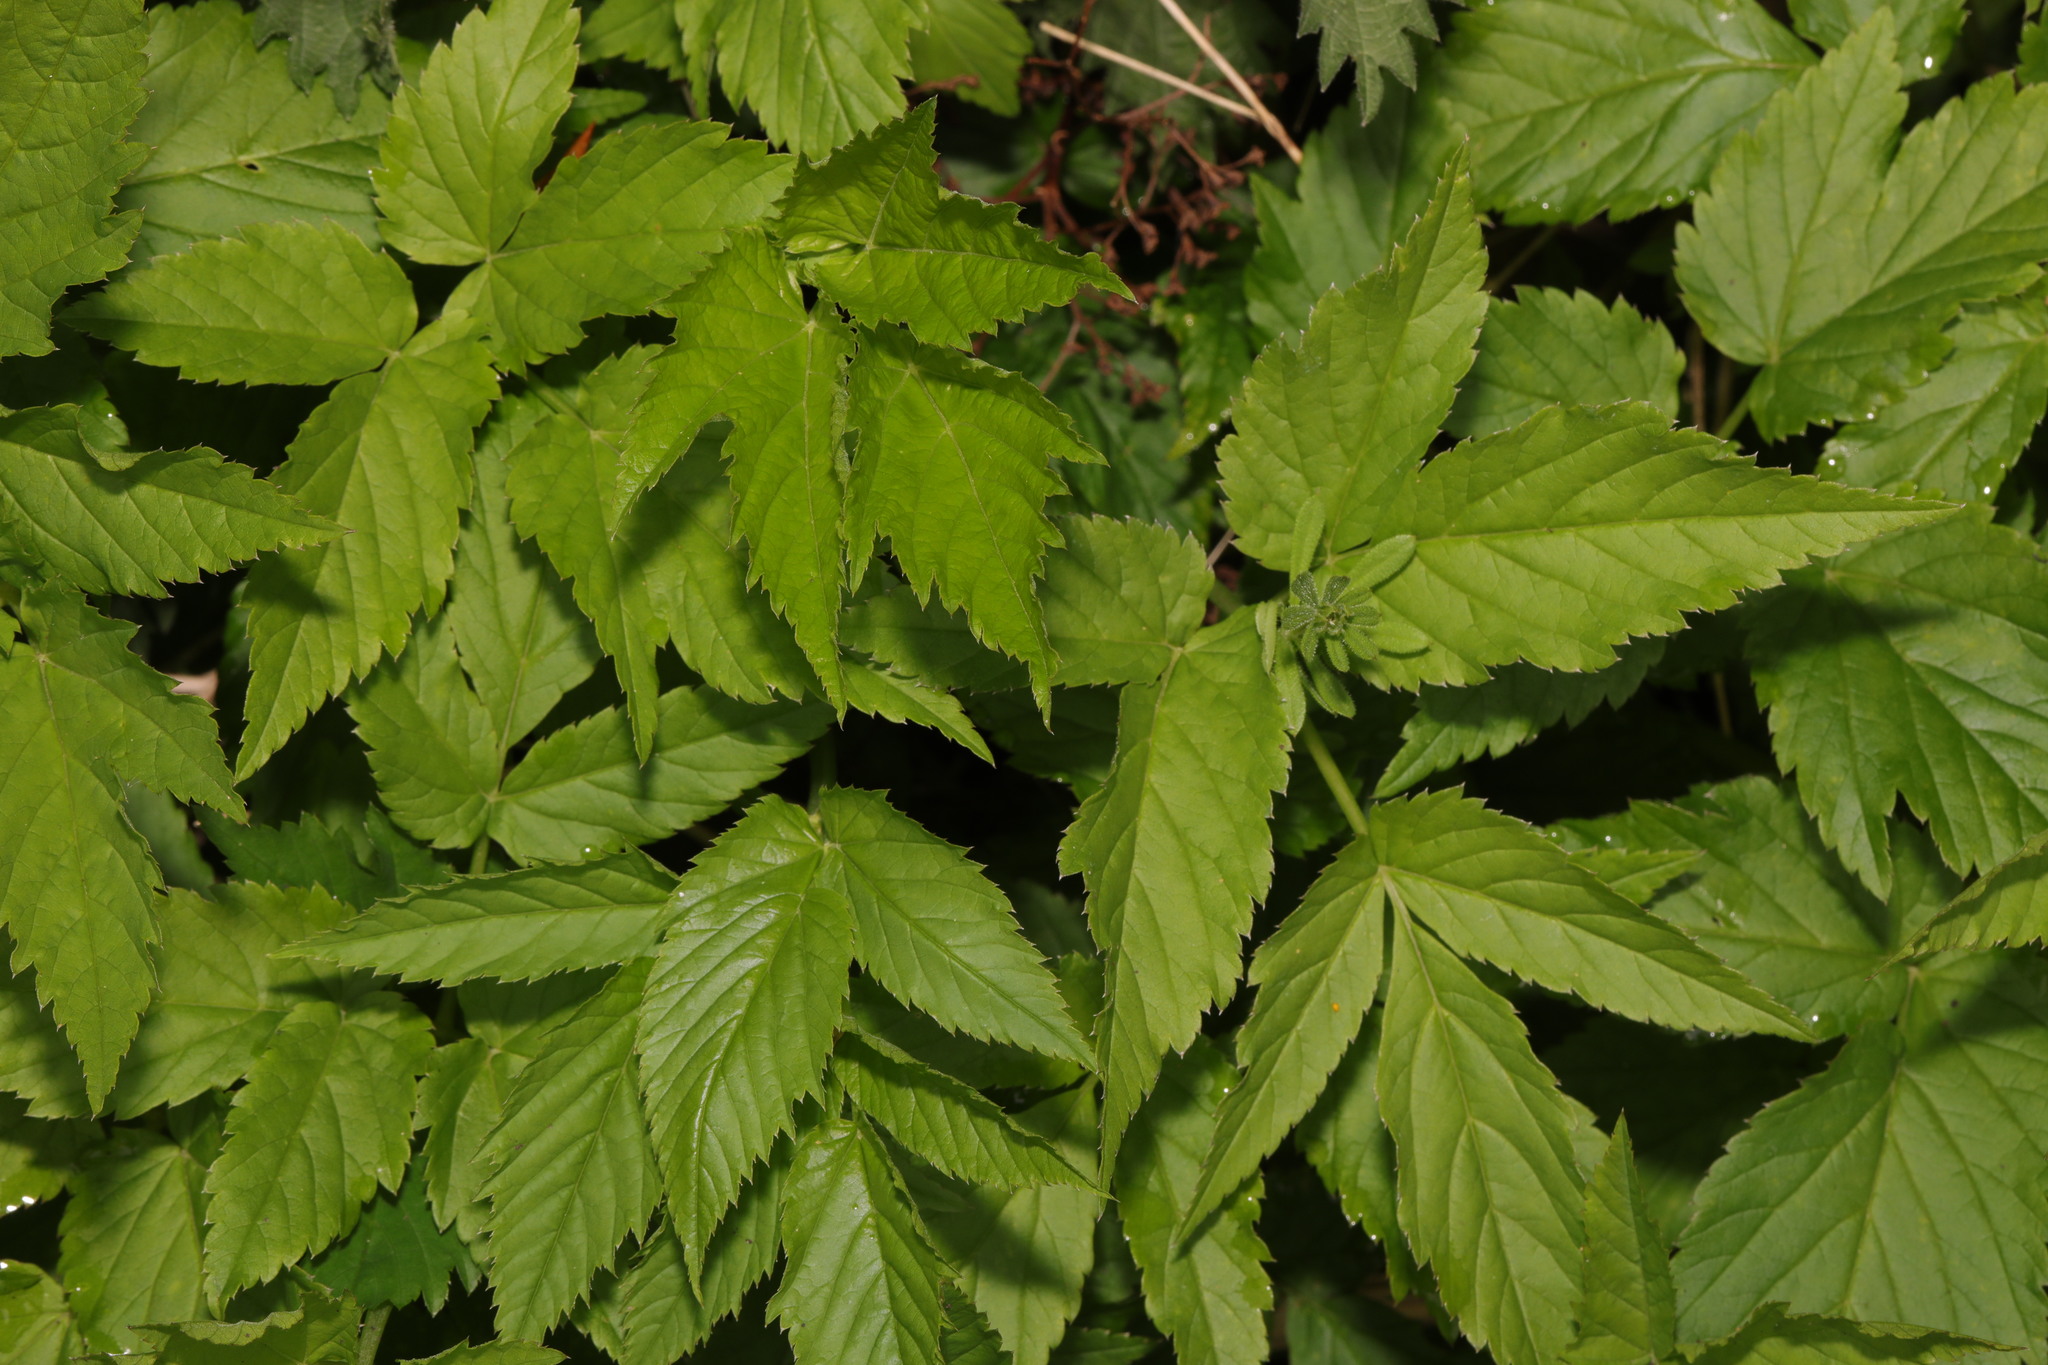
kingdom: Plantae
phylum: Tracheophyta
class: Magnoliopsida
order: Apiales
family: Apiaceae
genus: Aegopodium
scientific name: Aegopodium podagraria
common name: Ground-elder
